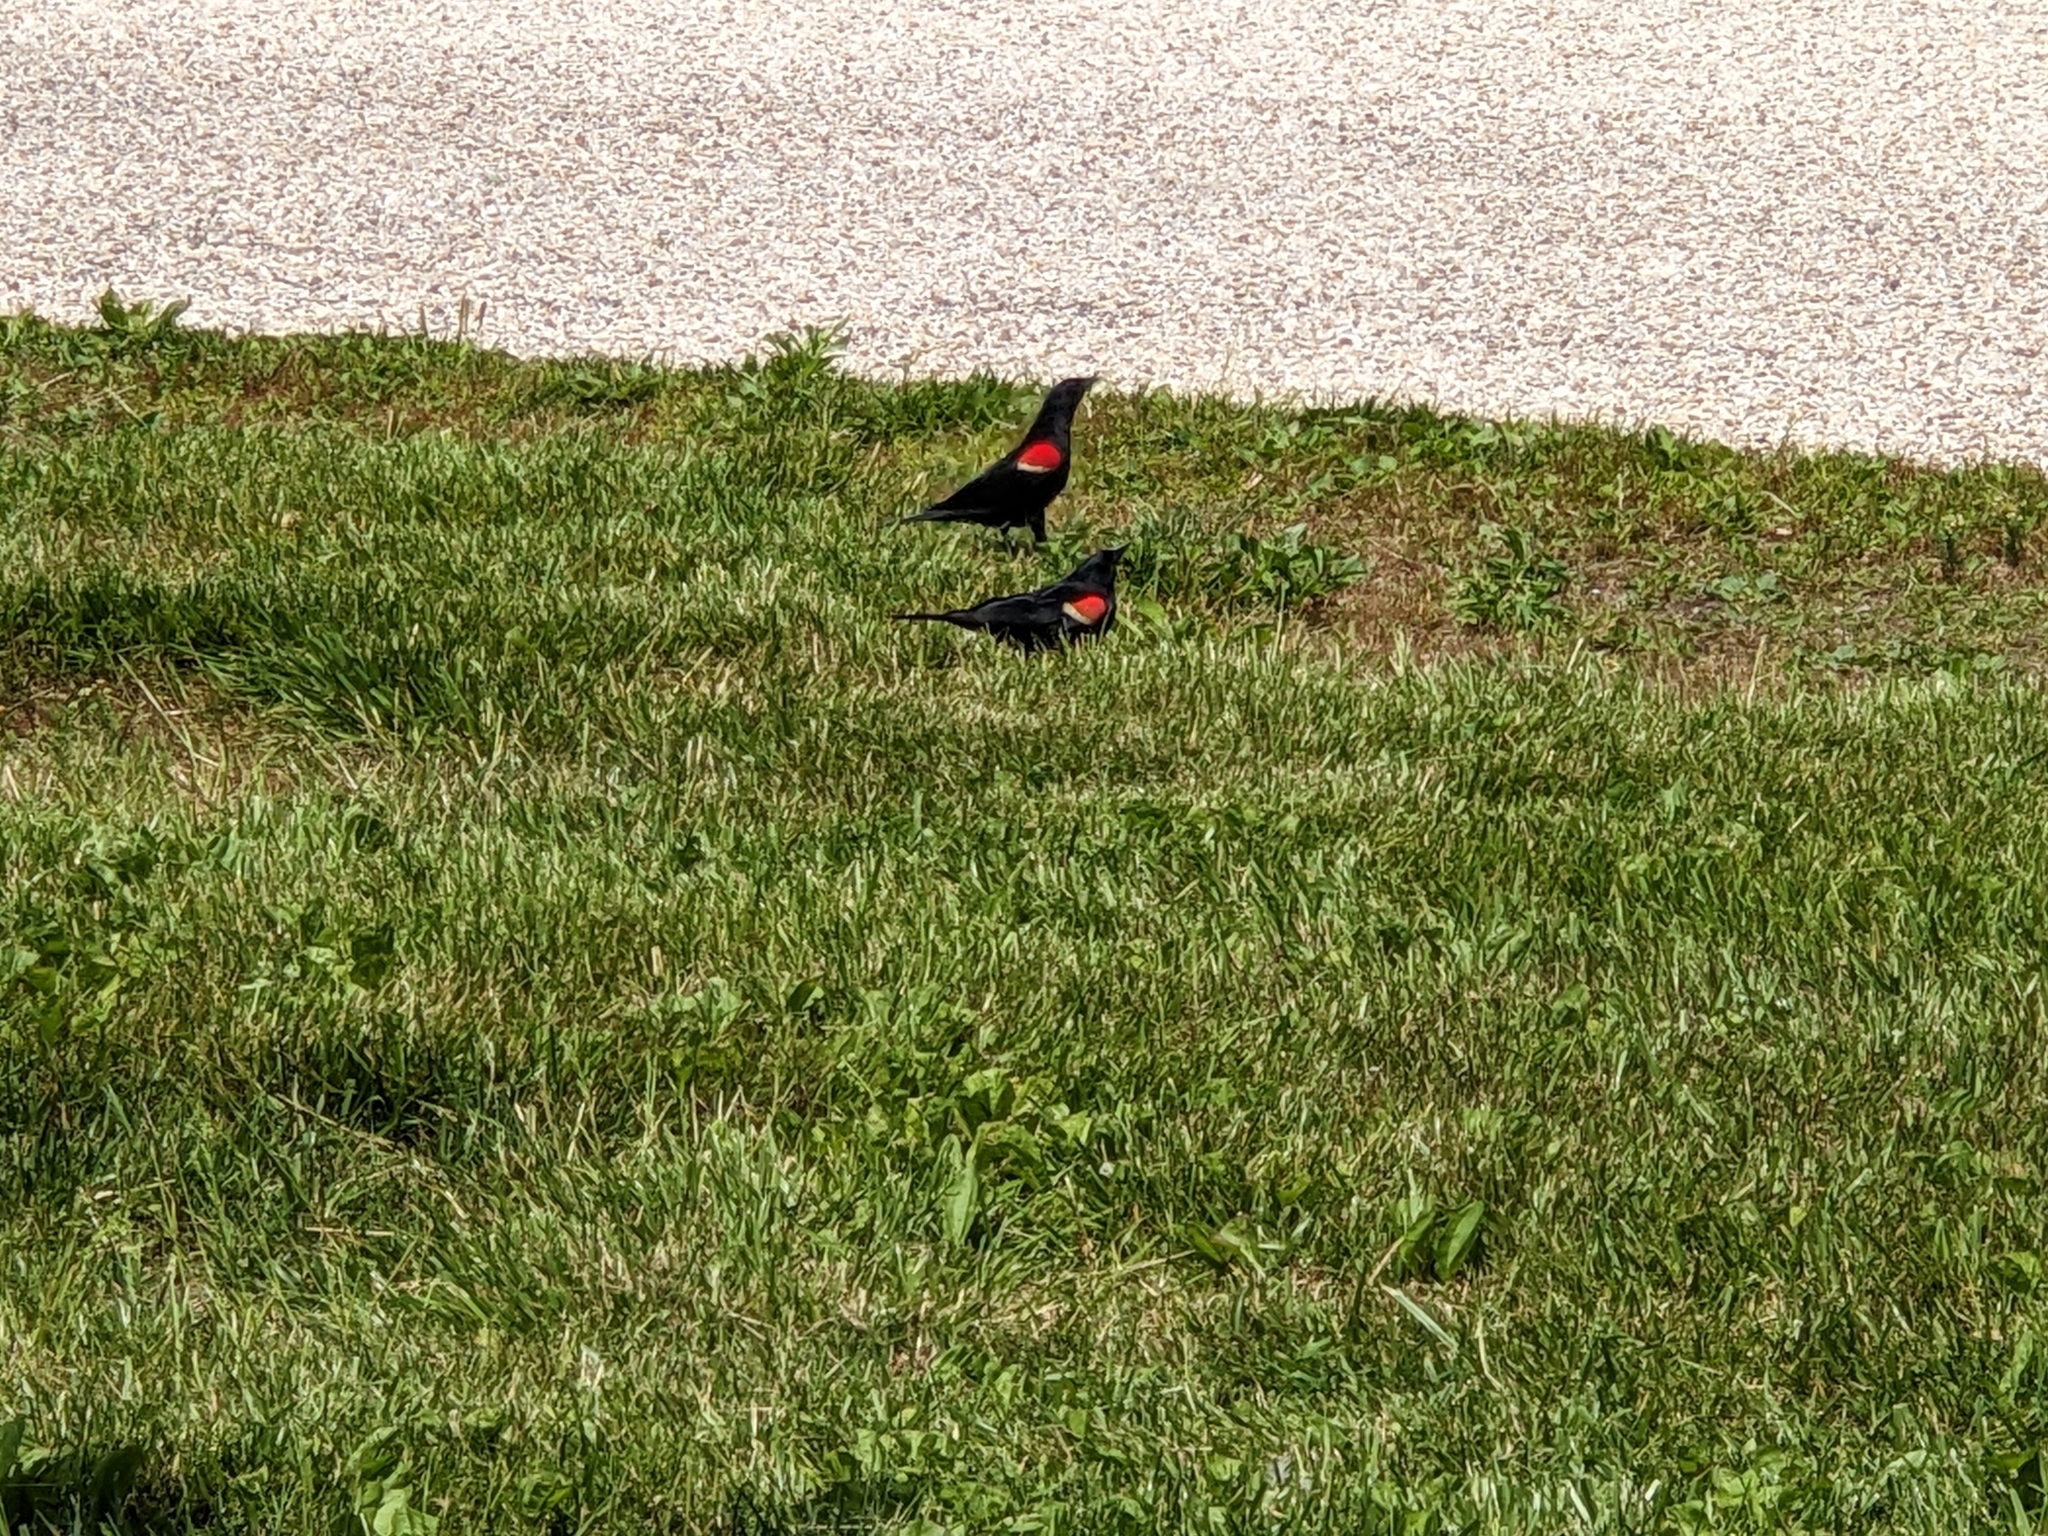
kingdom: Animalia
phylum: Chordata
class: Aves
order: Passeriformes
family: Icteridae
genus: Agelaius
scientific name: Agelaius phoeniceus
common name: Red-winged blackbird
